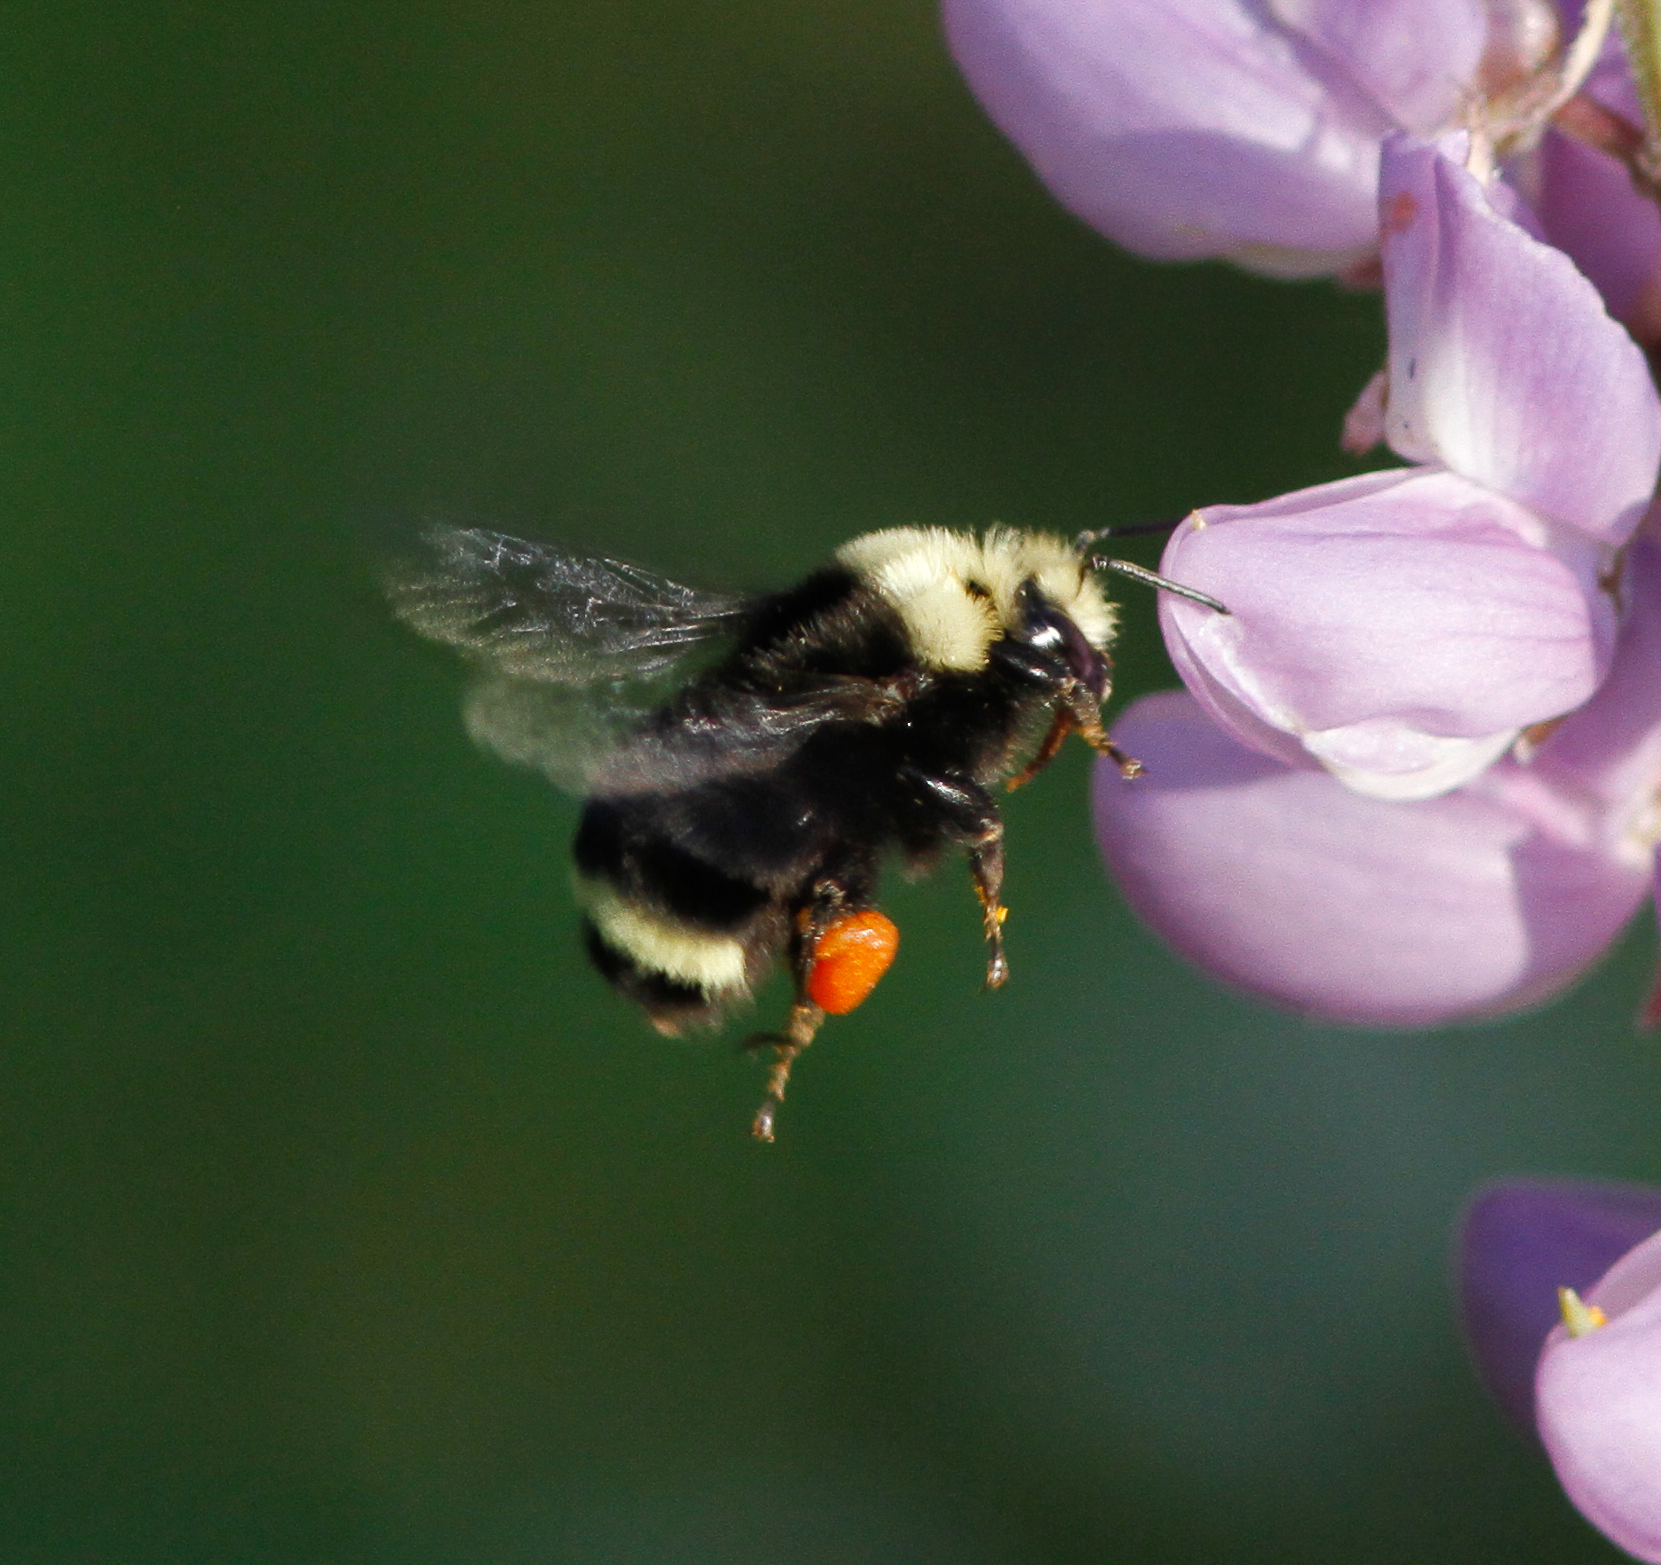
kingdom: Animalia
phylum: Arthropoda
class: Insecta
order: Hymenoptera
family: Apidae
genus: Bombus
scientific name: Bombus vosnesenskii
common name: Vosnesensky bumble bee
